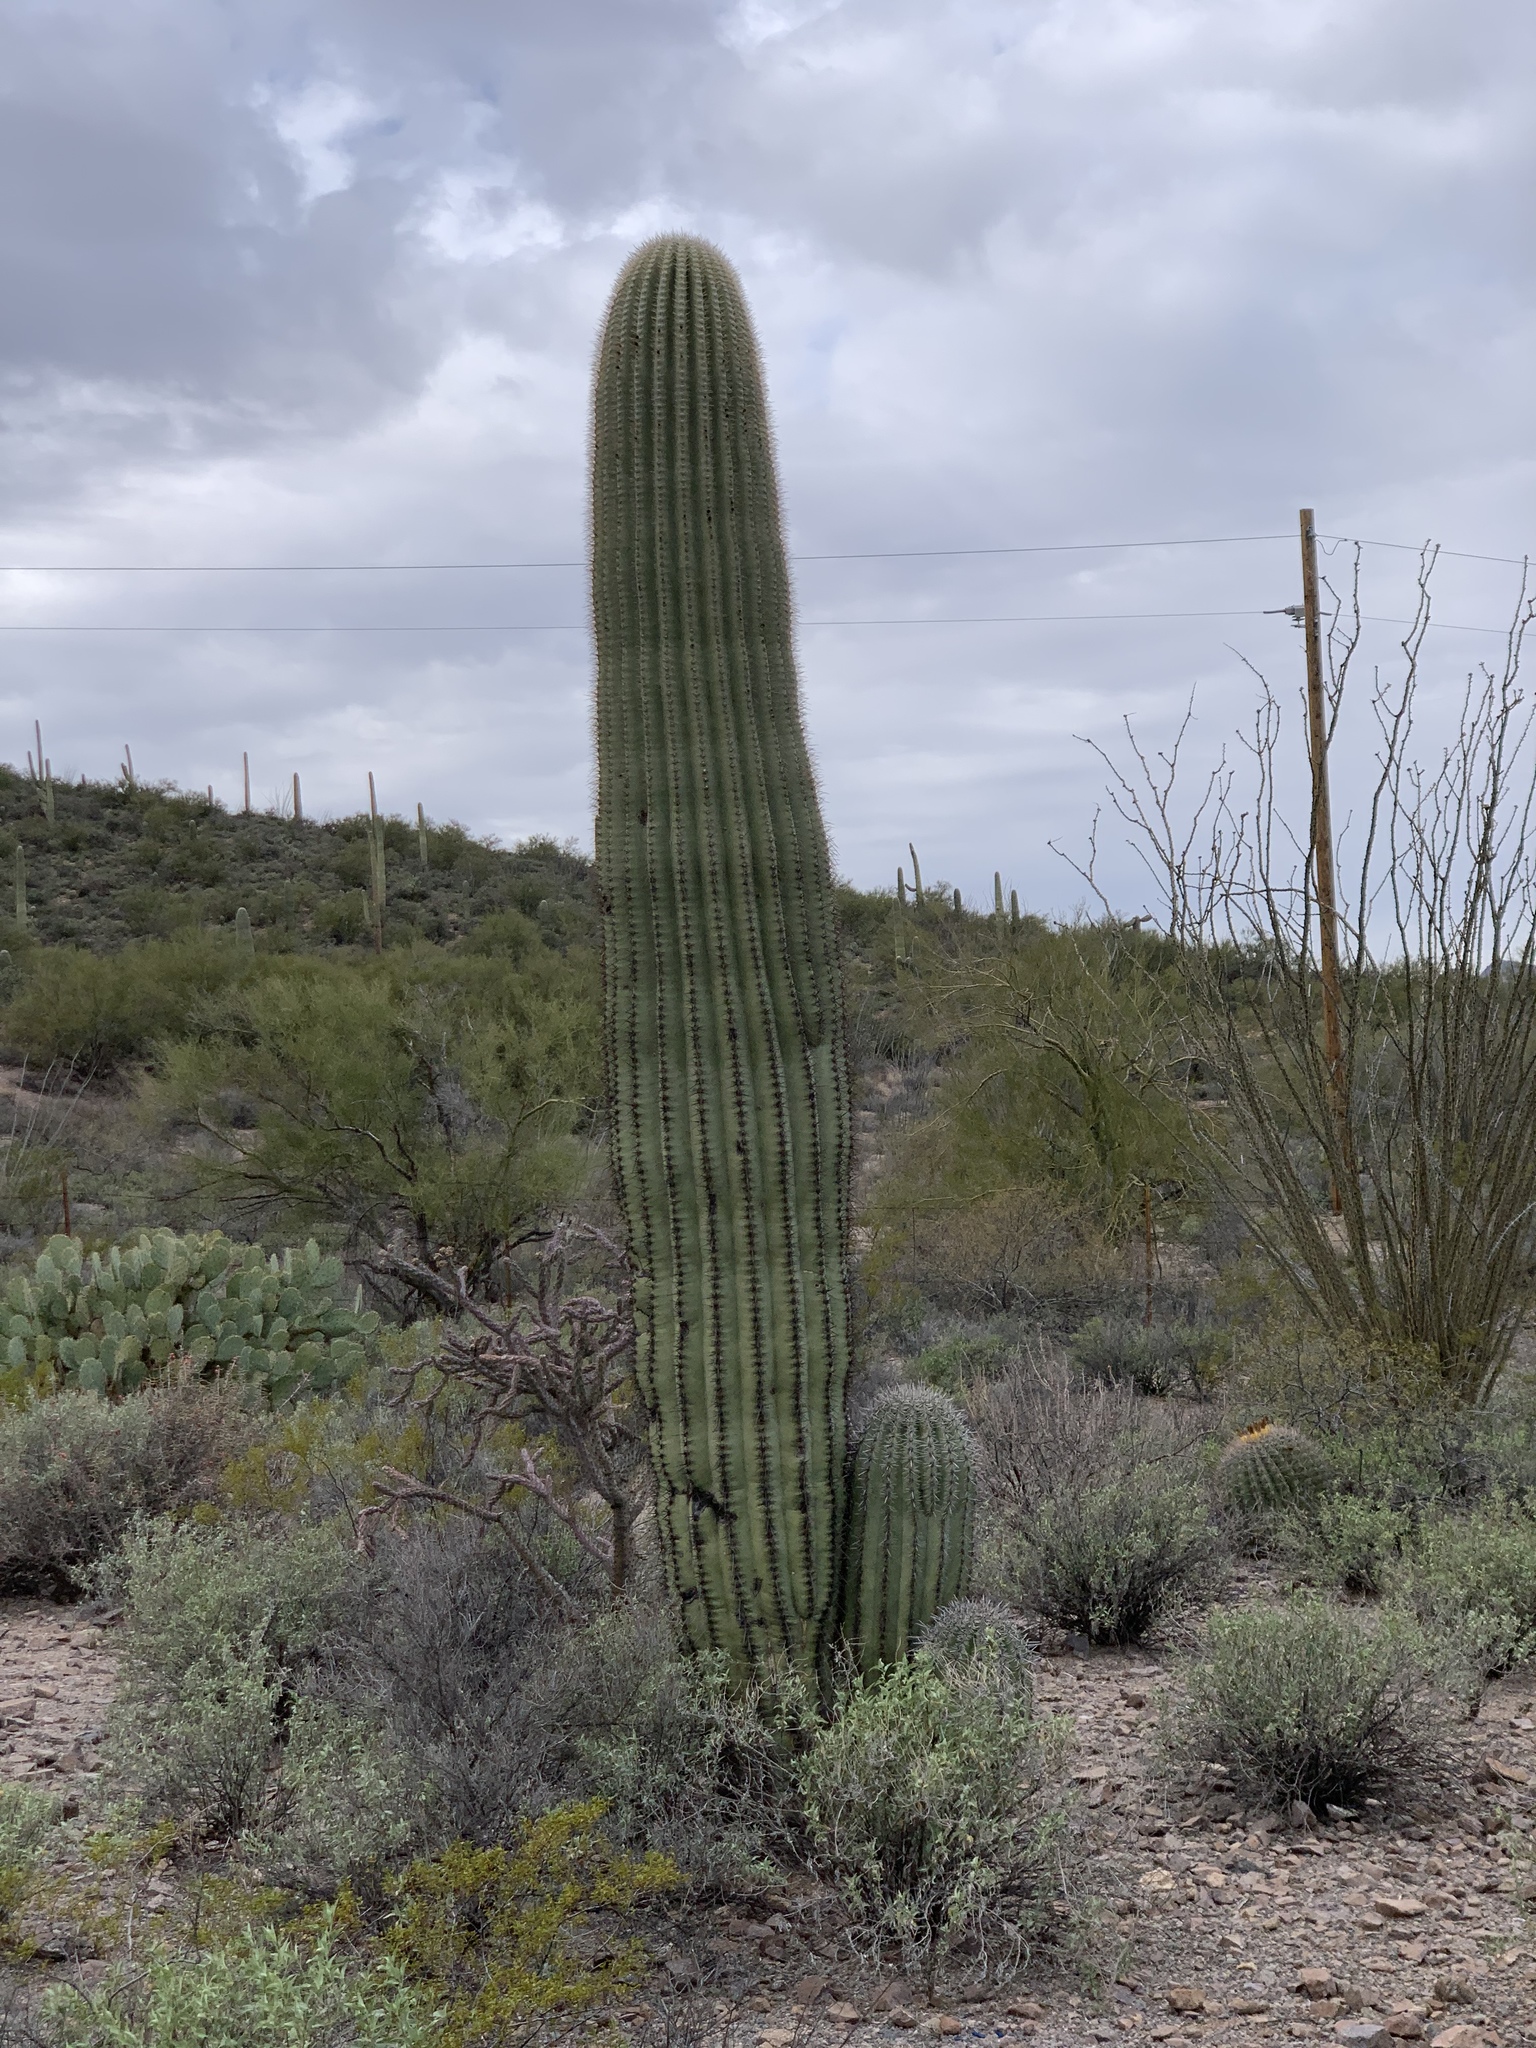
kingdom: Plantae
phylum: Tracheophyta
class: Magnoliopsida
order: Caryophyllales
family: Cactaceae
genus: Carnegiea
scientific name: Carnegiea gigantea
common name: Saguaro
